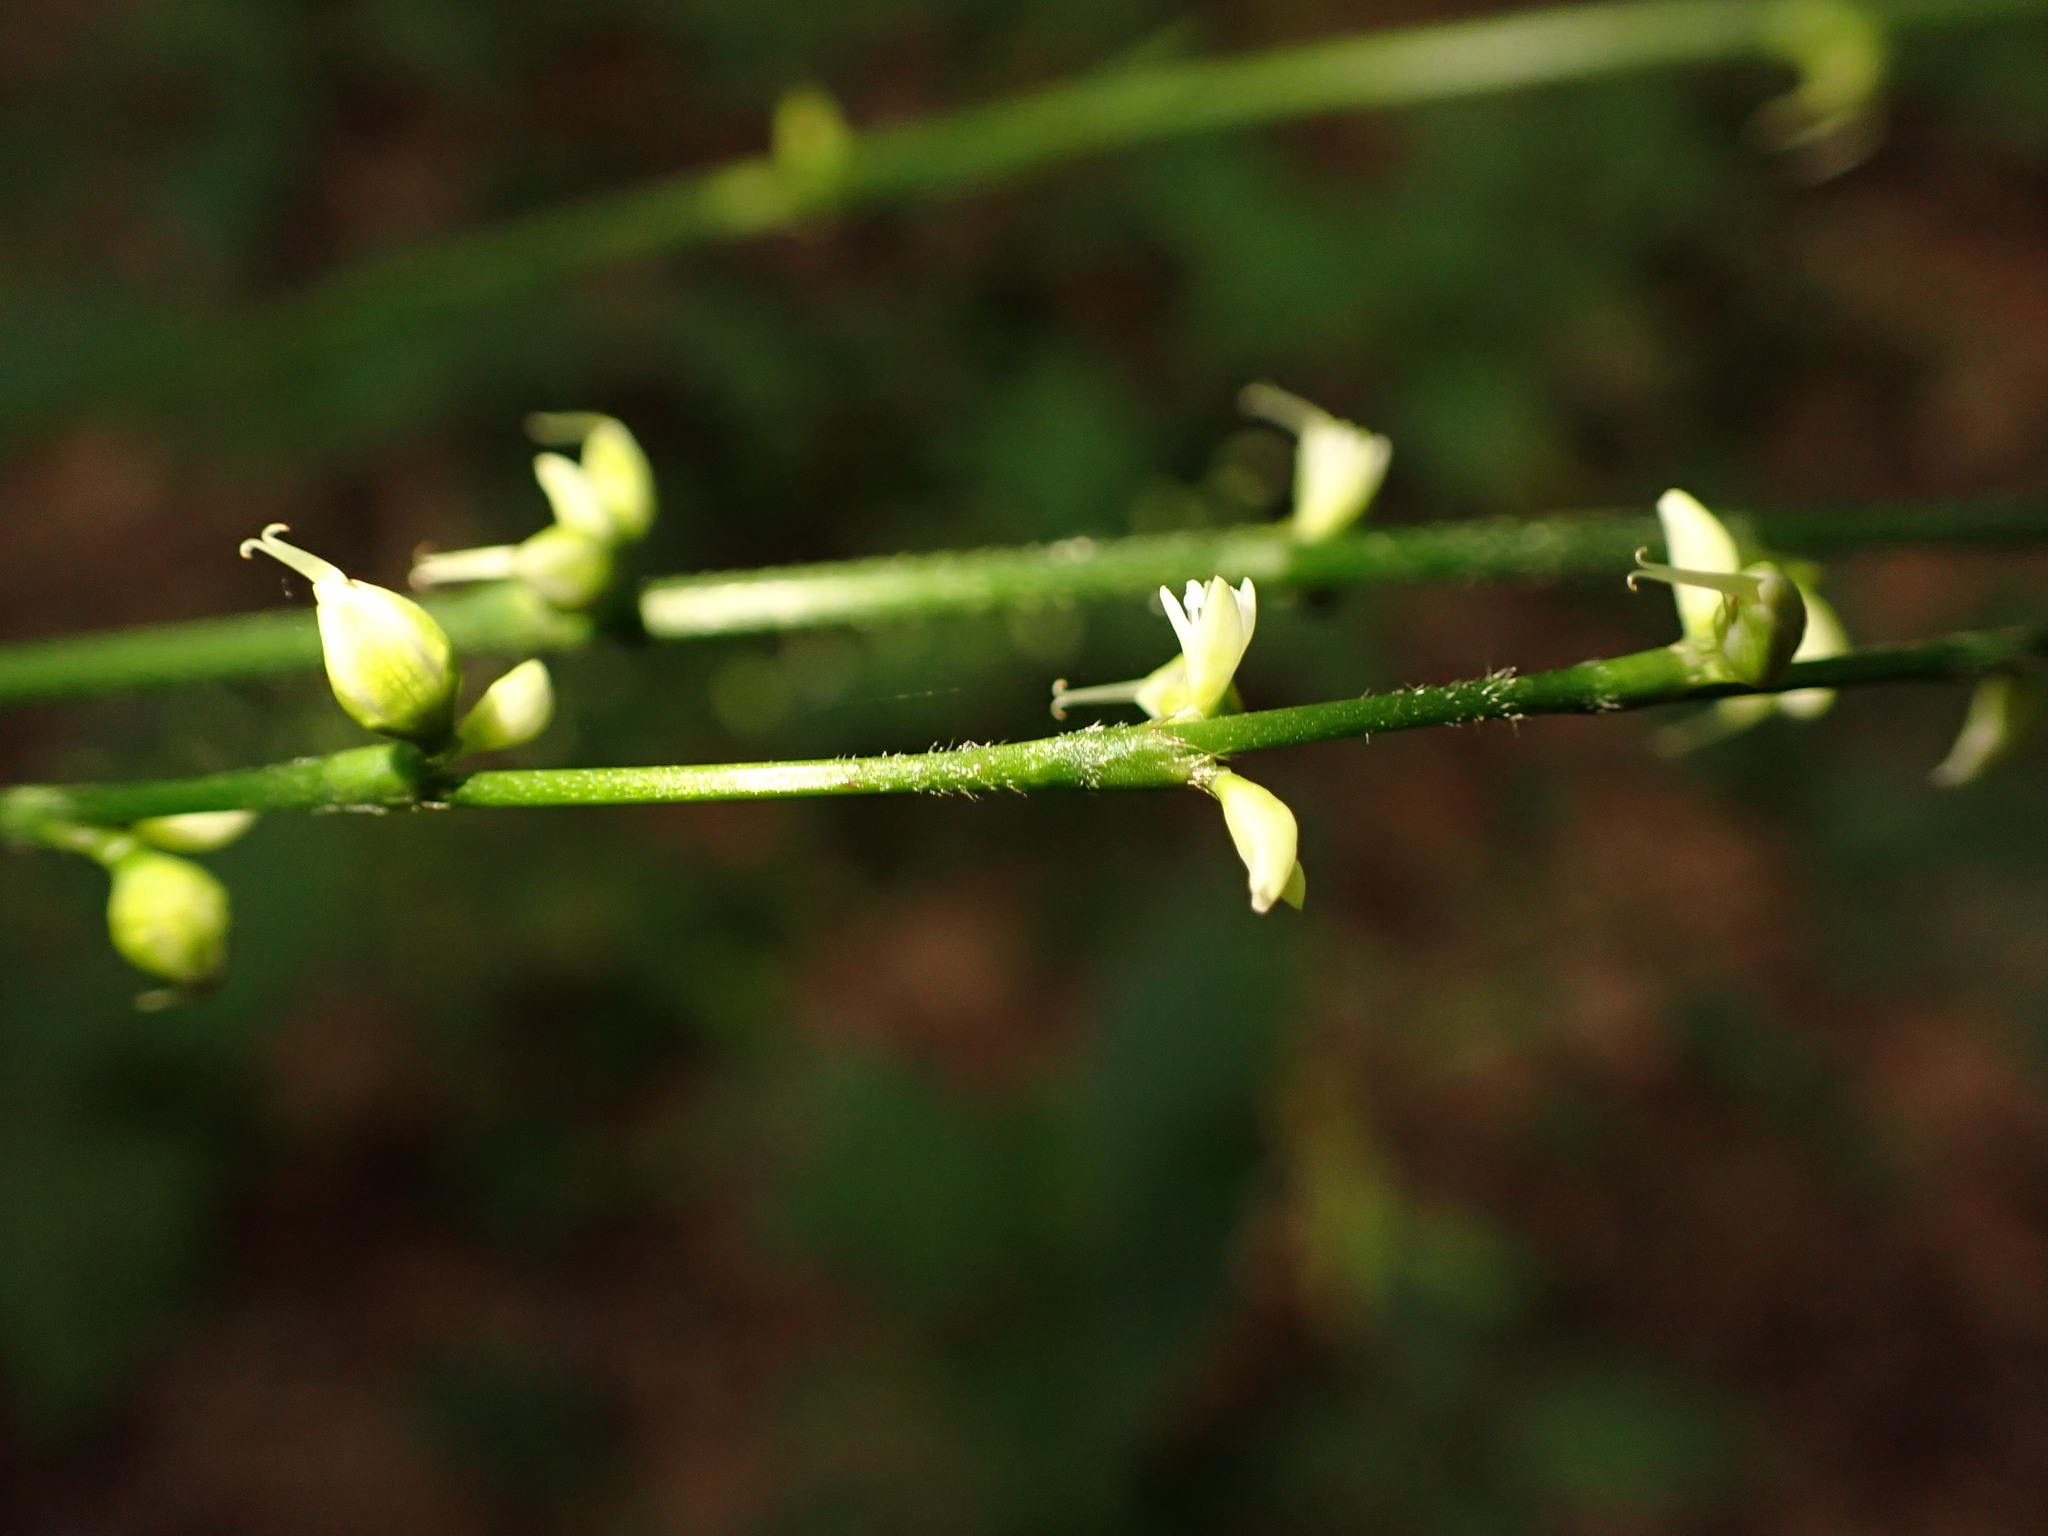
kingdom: Plantae
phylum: Tracheophyta
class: Magnoliopsida
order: Caryophyllales
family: Polygonaceae
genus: Persicaria
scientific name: Persicaria virginiana
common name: Jumpseed
